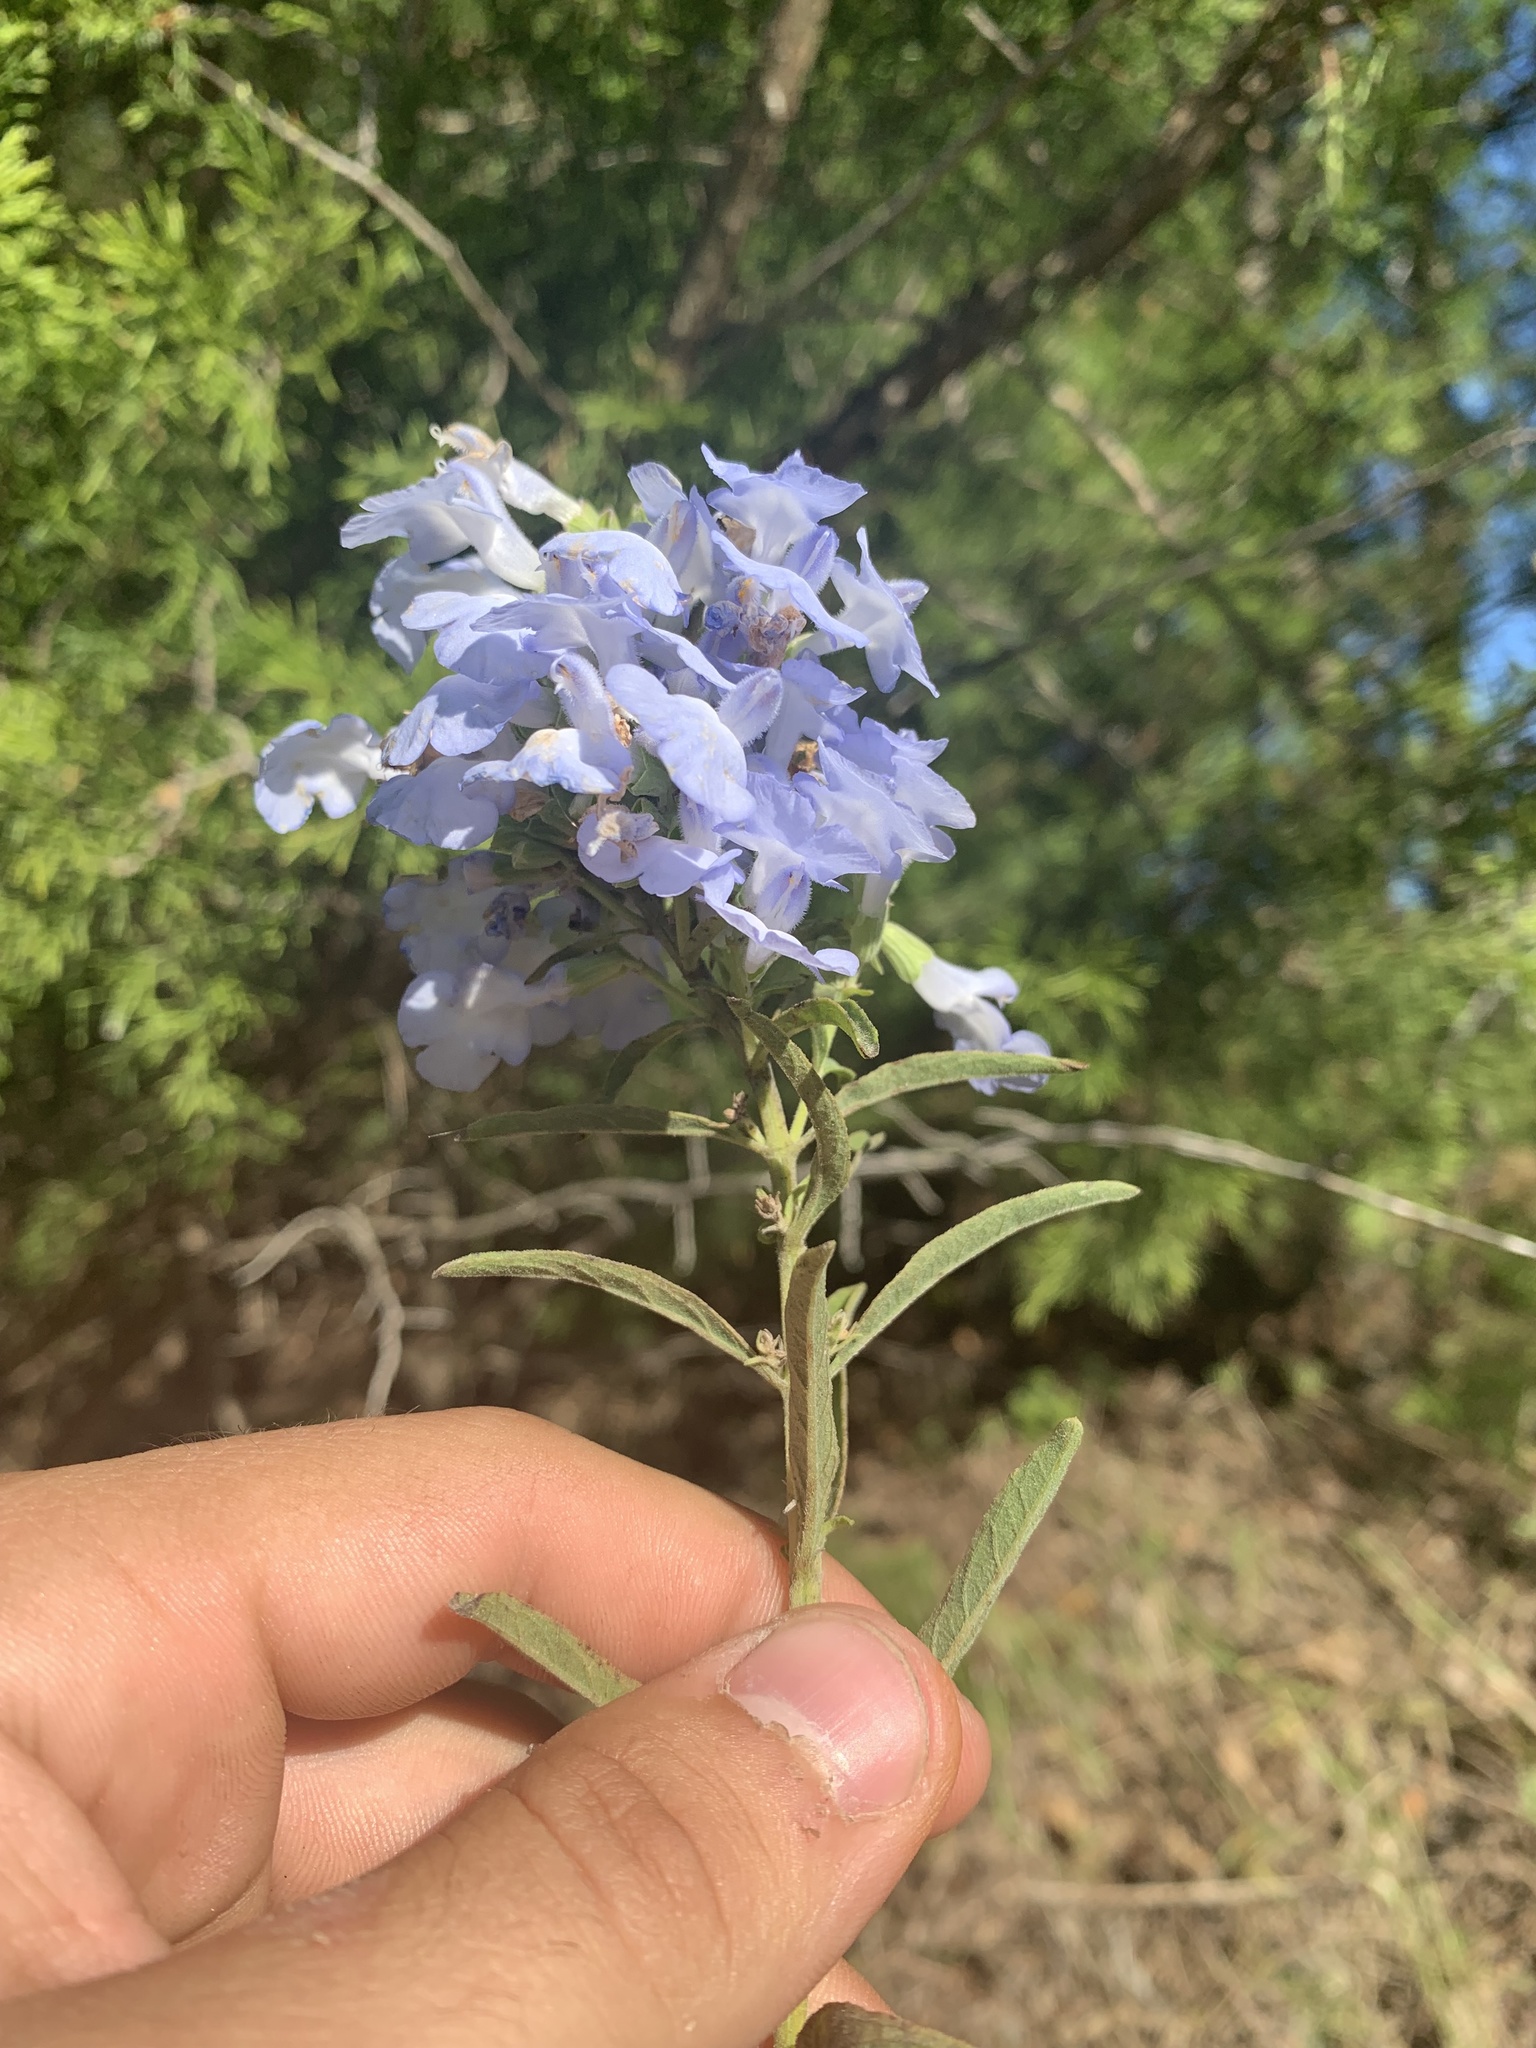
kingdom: Plantae
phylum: Tracheophyta
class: Magnoliopsida
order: Lamiales
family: Lamiaceae
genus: Salvia
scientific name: Salvia azurea
